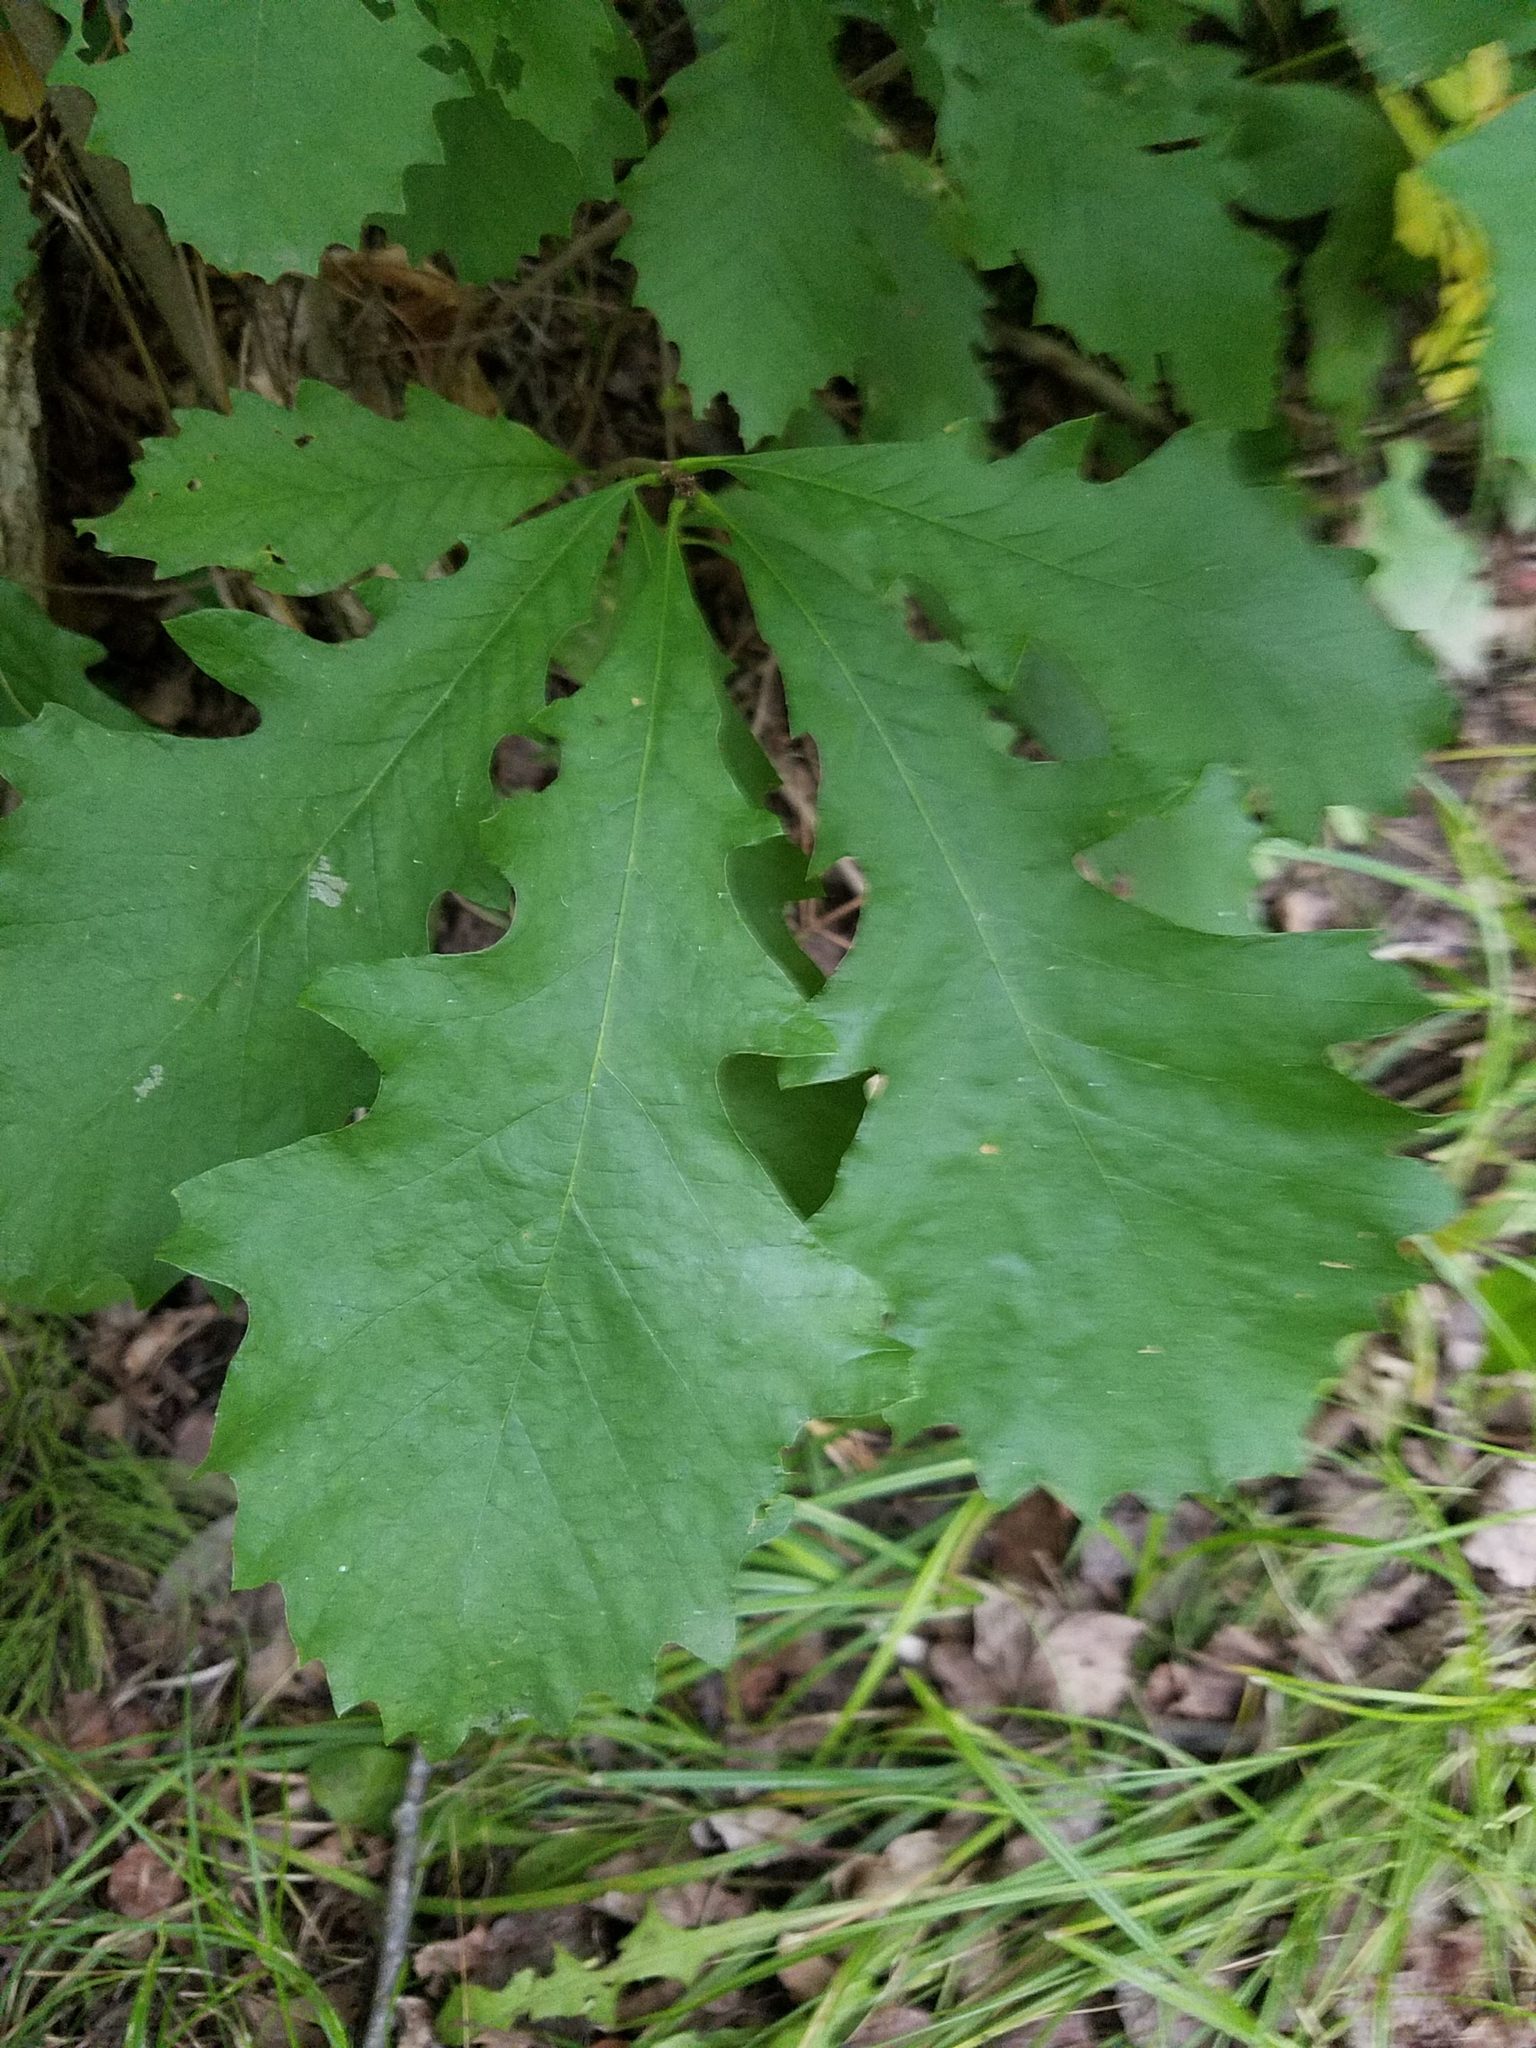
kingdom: Plantae
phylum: Tracheophyta
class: Magnoliopsida
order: Fagales
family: Fagaceae
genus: Quercus
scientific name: Quercus macrocarpa
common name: Bur oak
